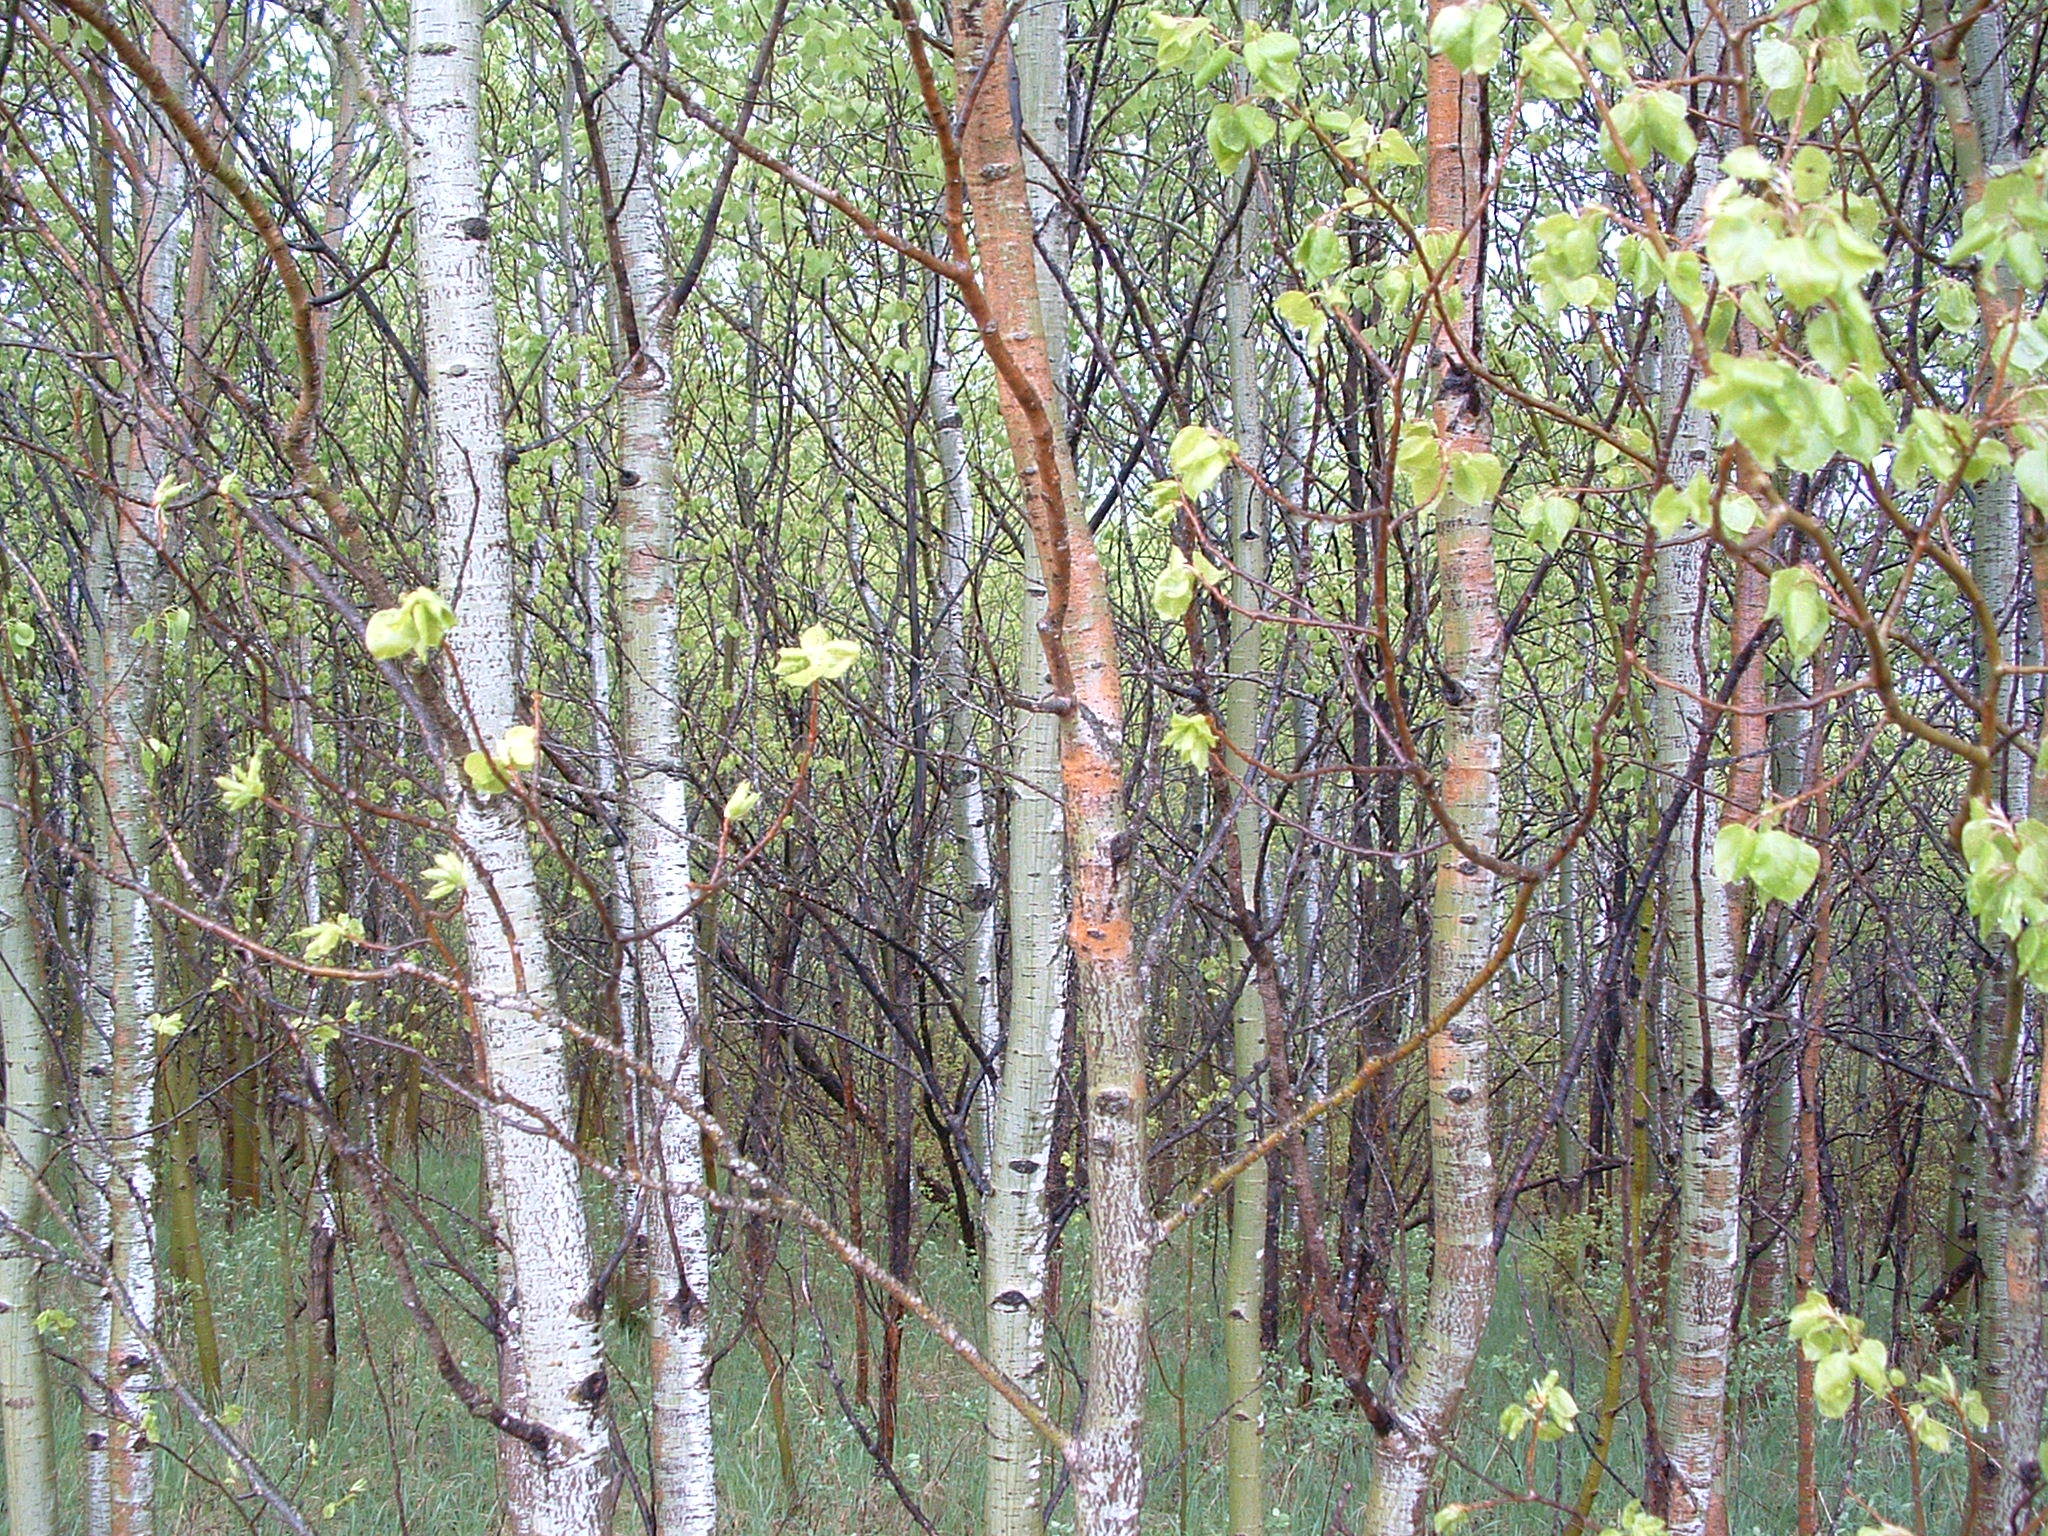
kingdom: Plantae
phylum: Tracheophyta
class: Magnoliopsida
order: Malpighiales
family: Salicaceae
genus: Populus
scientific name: Populus tremuloides
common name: Quaking aspen
